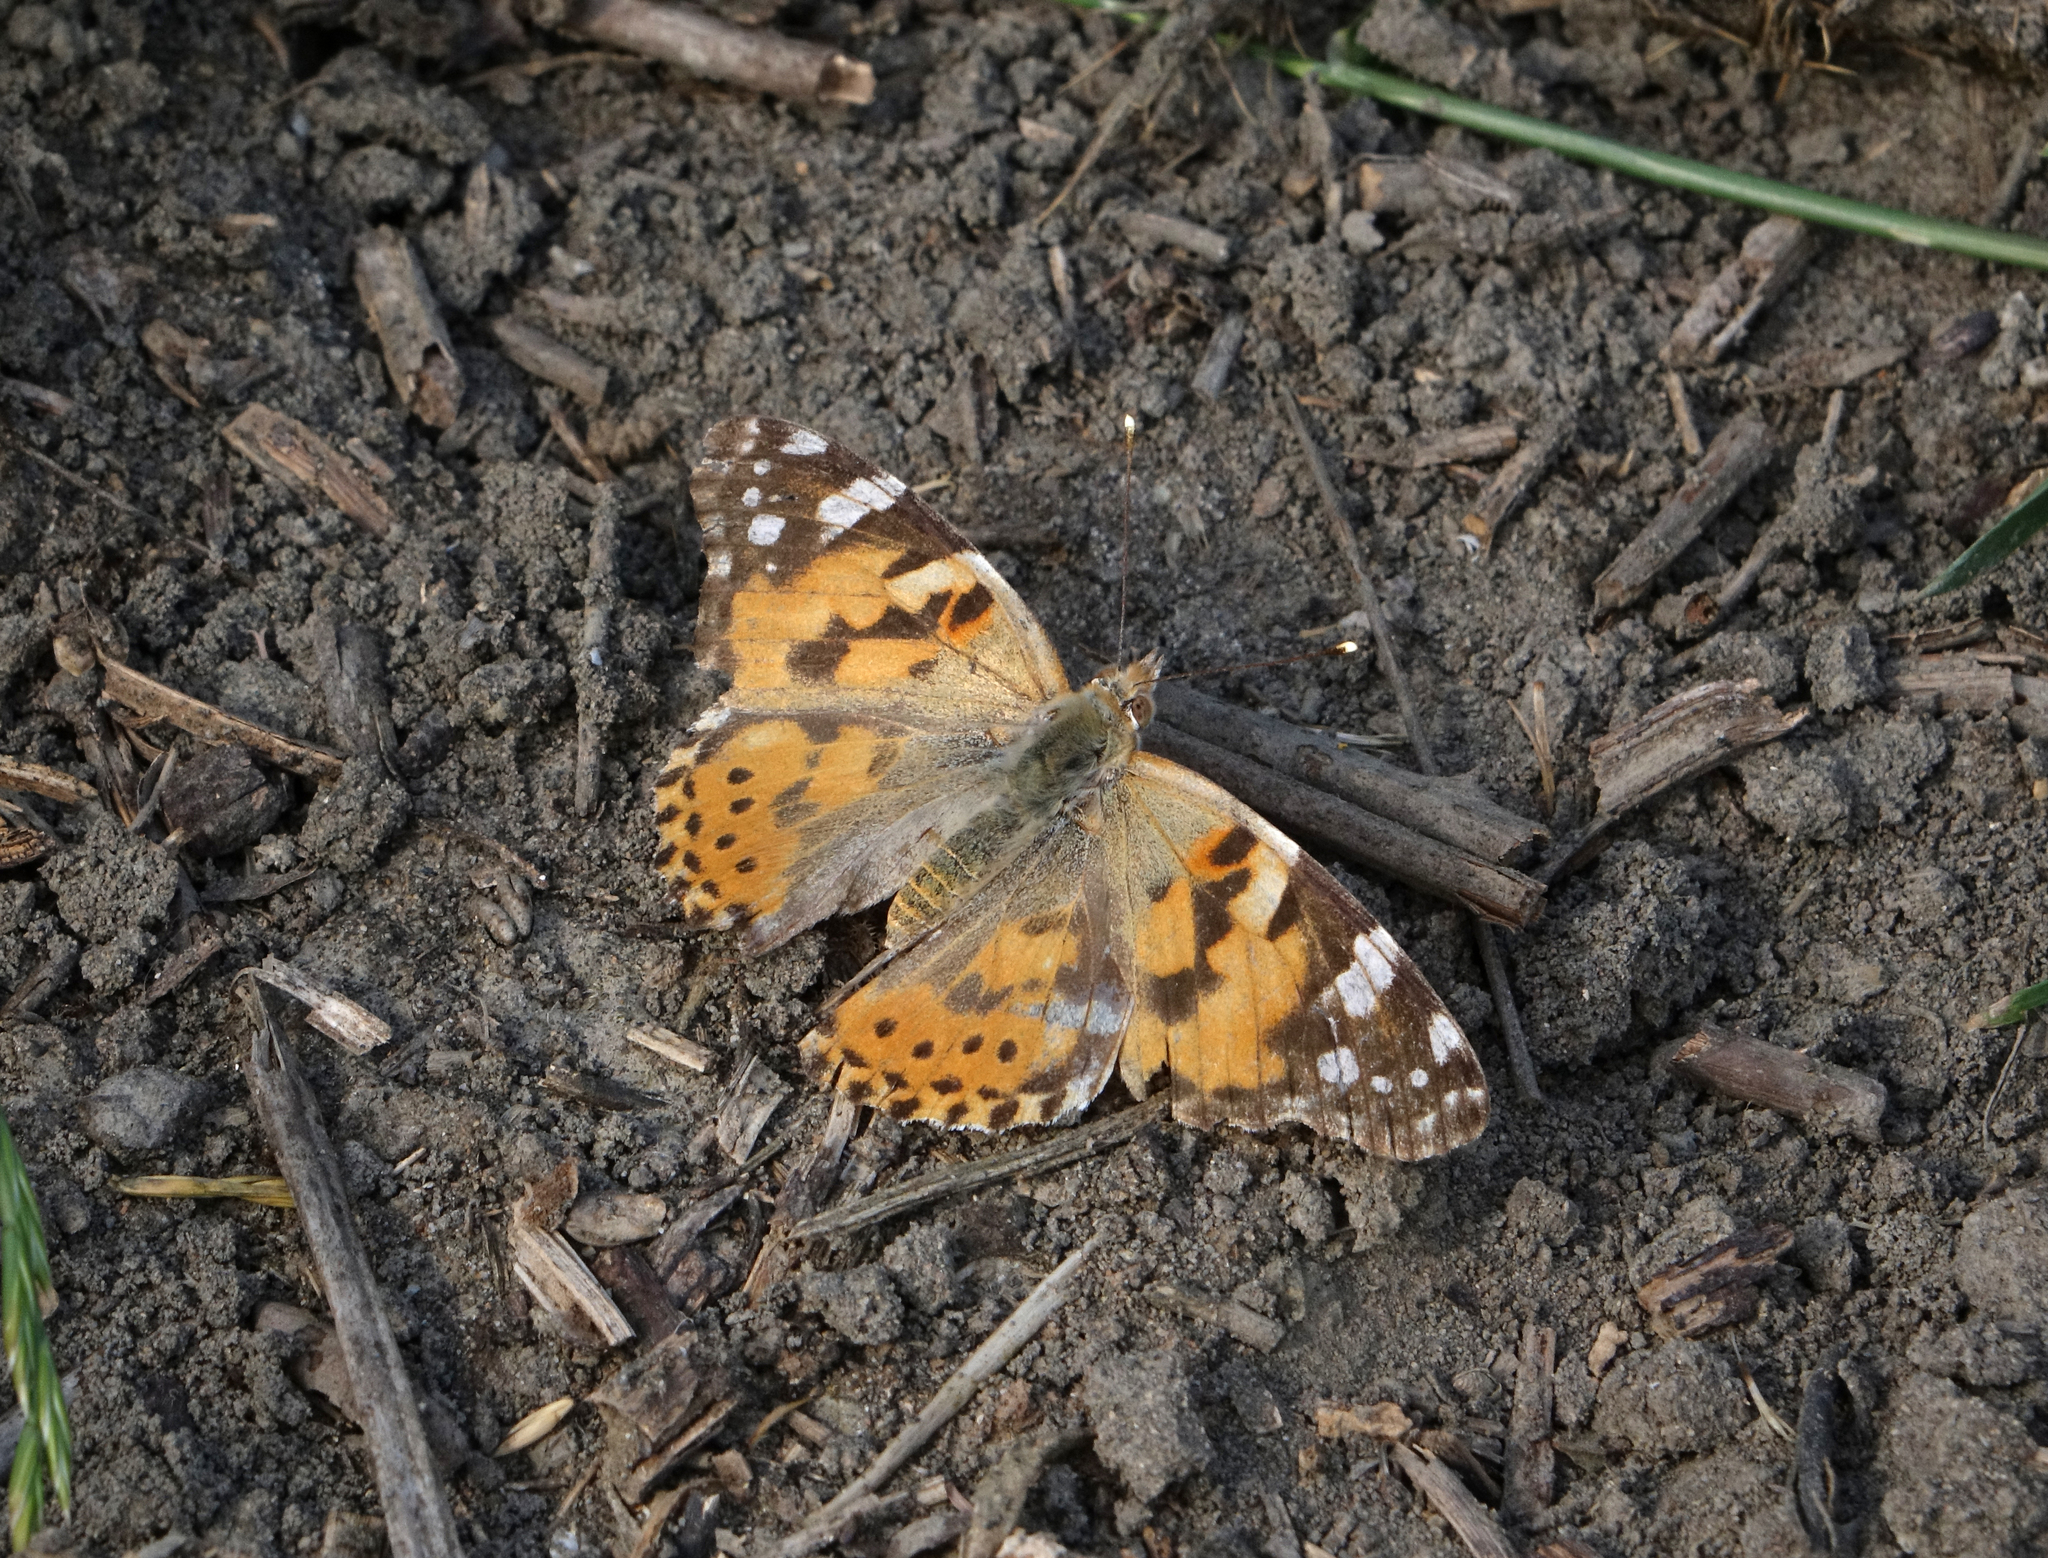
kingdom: Animalia
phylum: Arthropoda
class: Insecta
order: Lepidoptera
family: Nymphalidae
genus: Vanessa
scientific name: Vanessa cardui
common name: Painted lady
